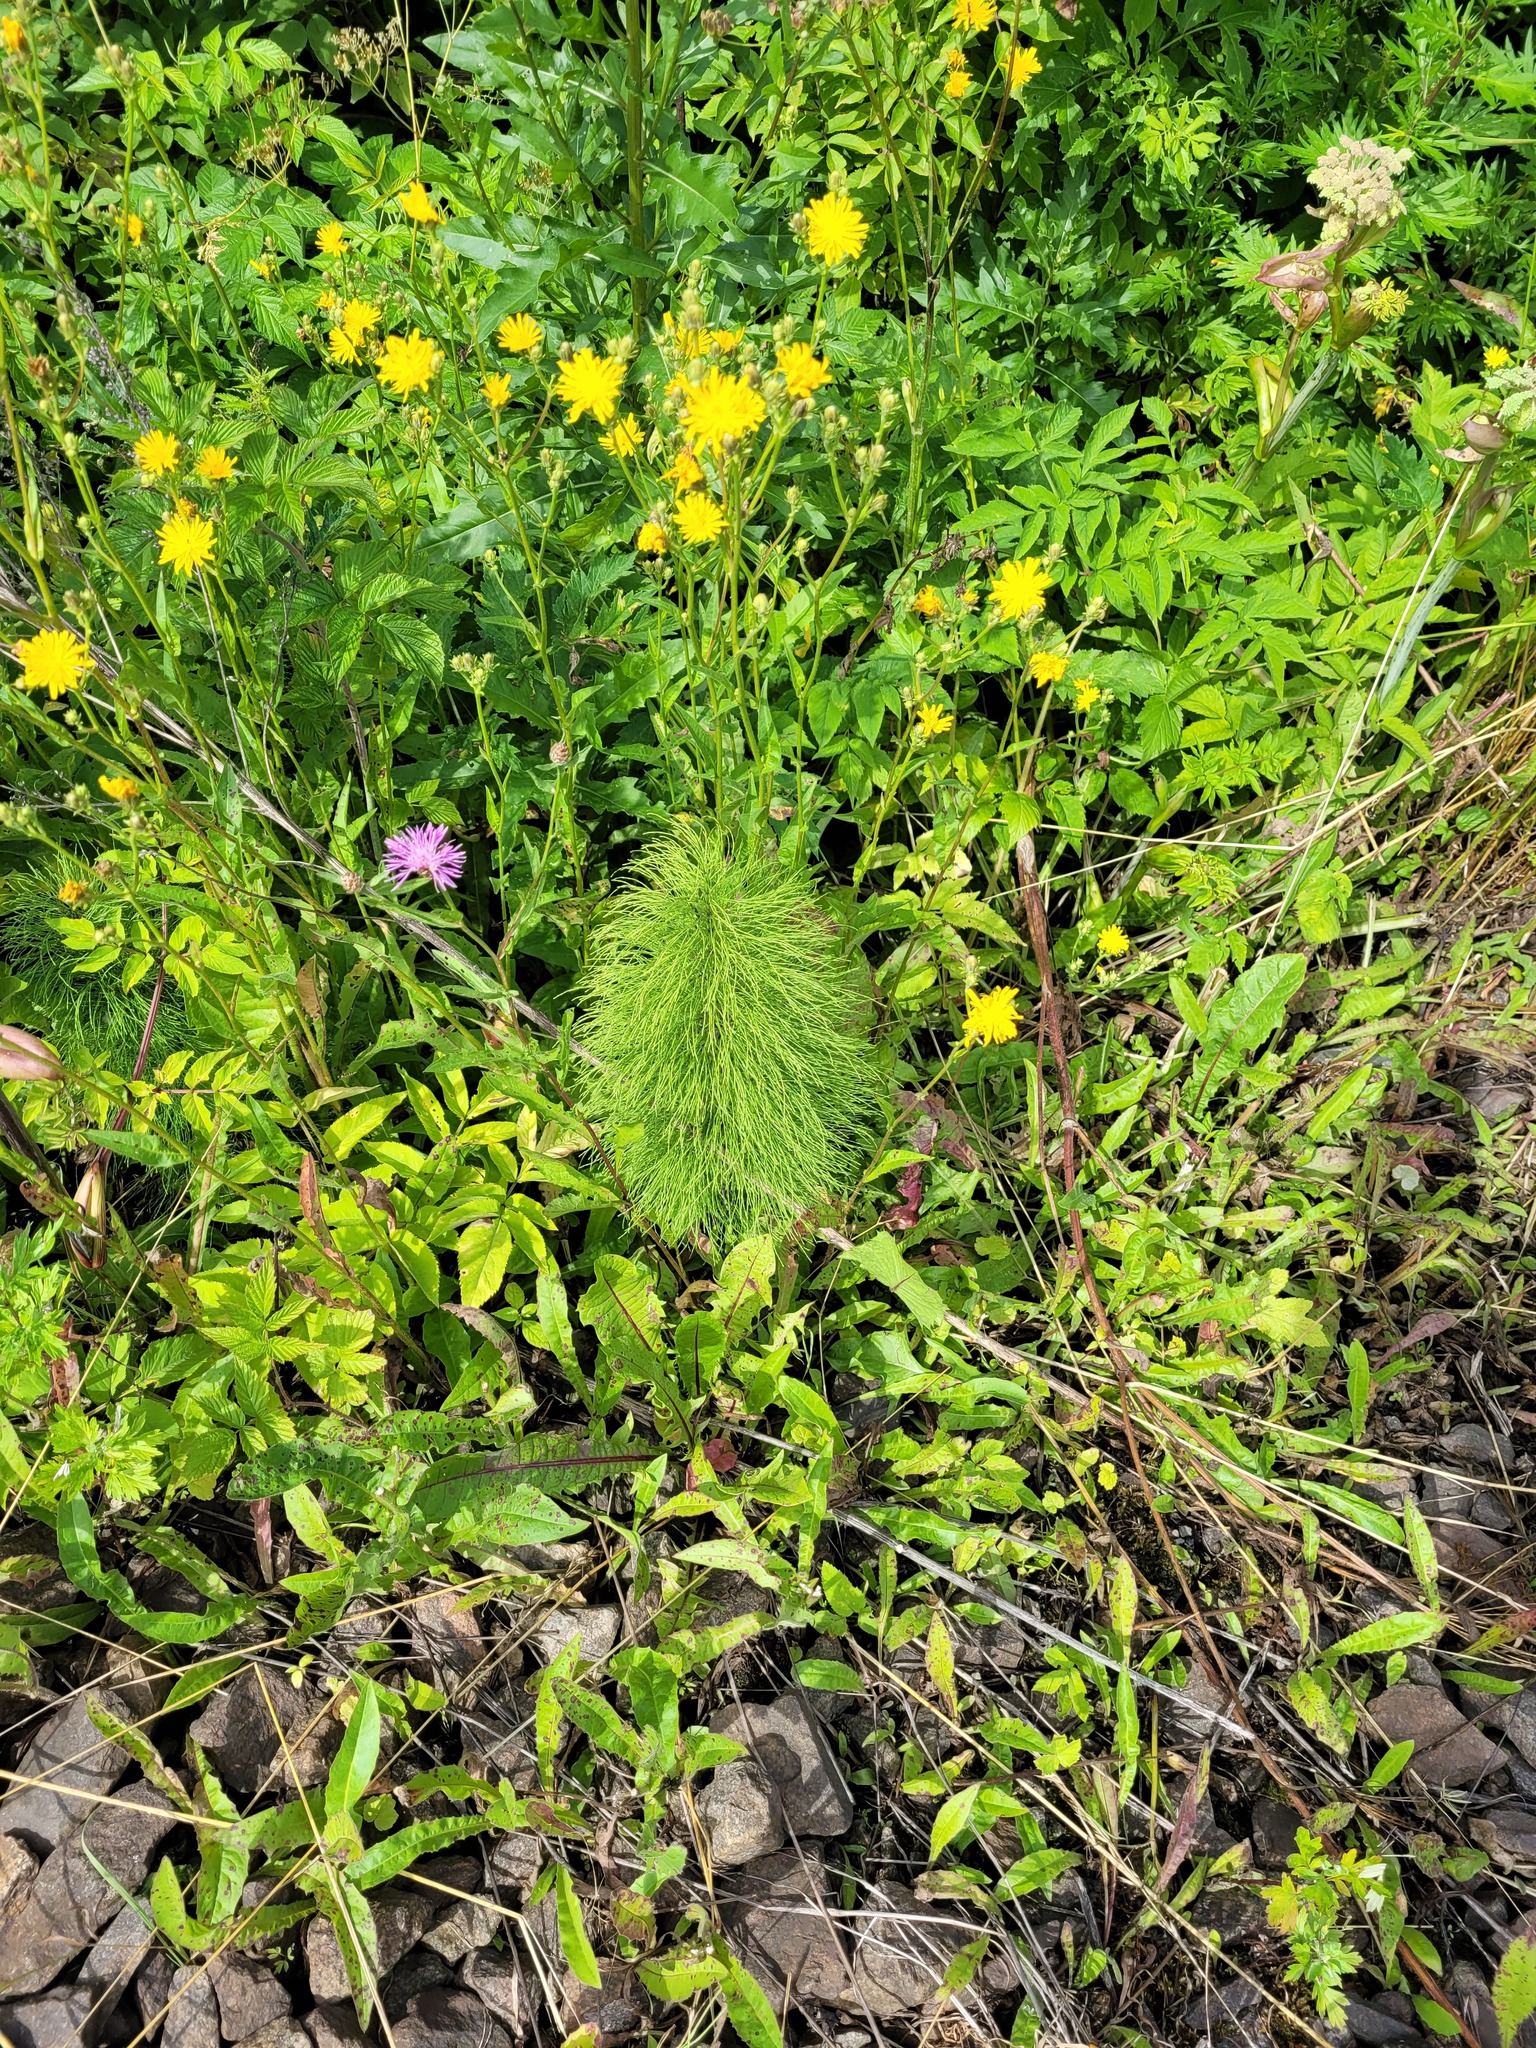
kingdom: Plantae
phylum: Tracheophyta
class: Polypodiopsida
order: Equisetales
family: Equisetaceae
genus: Equisetum
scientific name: Equisetum sylvaticum
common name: Wood horsetail
